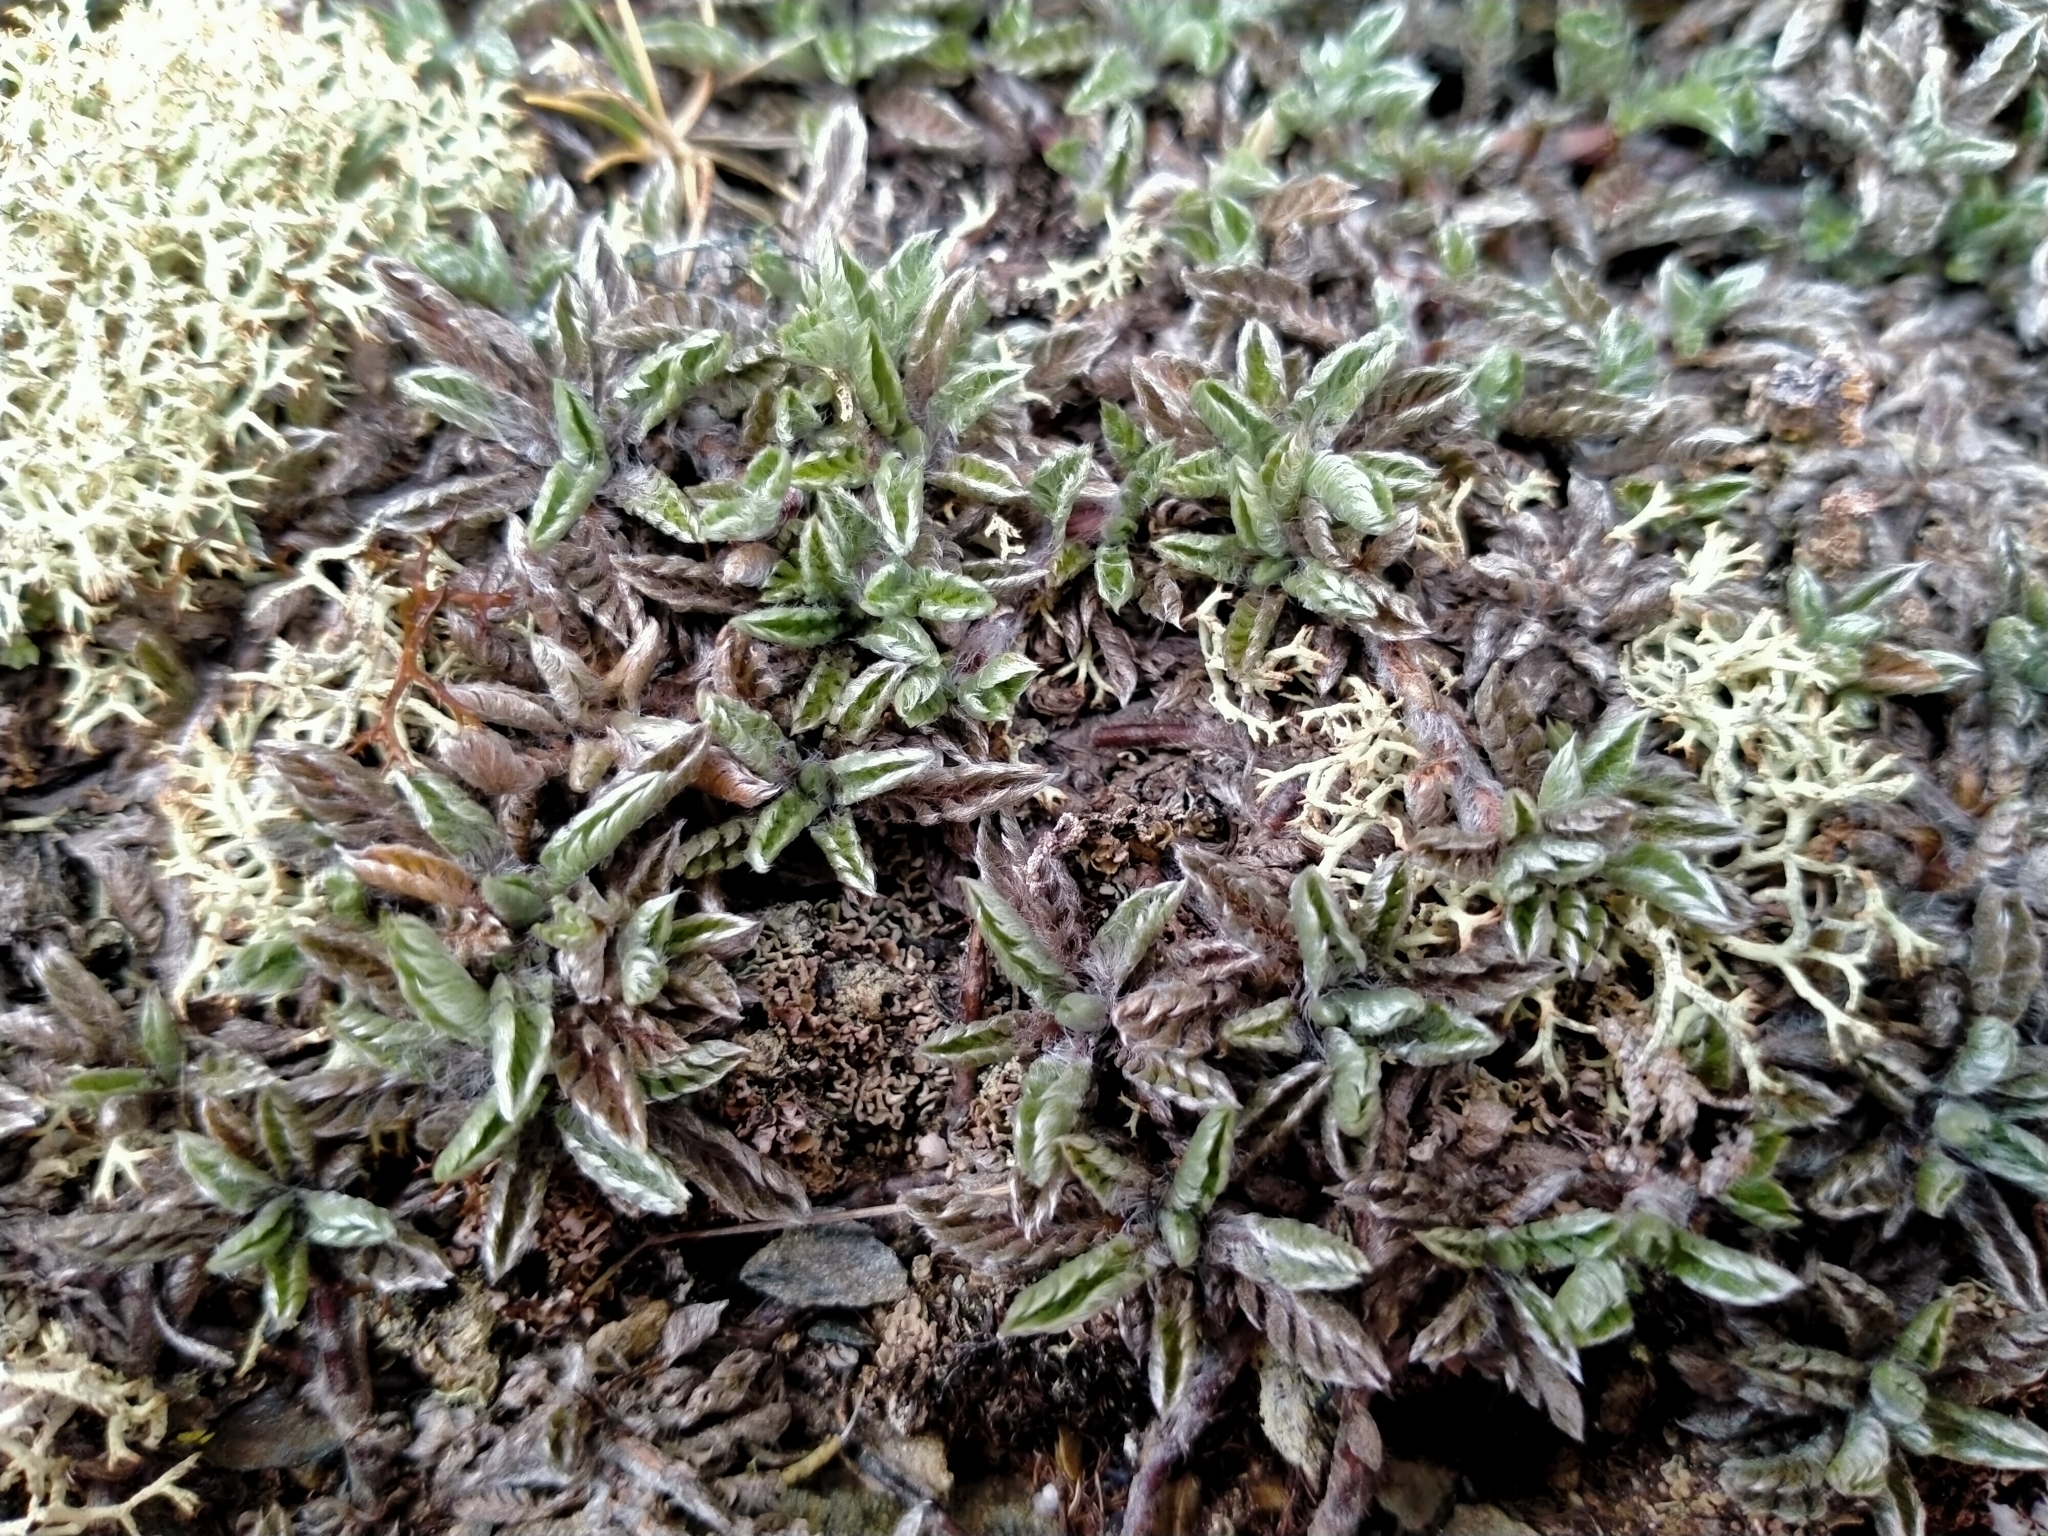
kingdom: Plantae
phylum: Tracheophyta
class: Magnoliopsida
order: Asterales
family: Asteraceae
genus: Leptinella
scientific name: Leptinella pectinata
